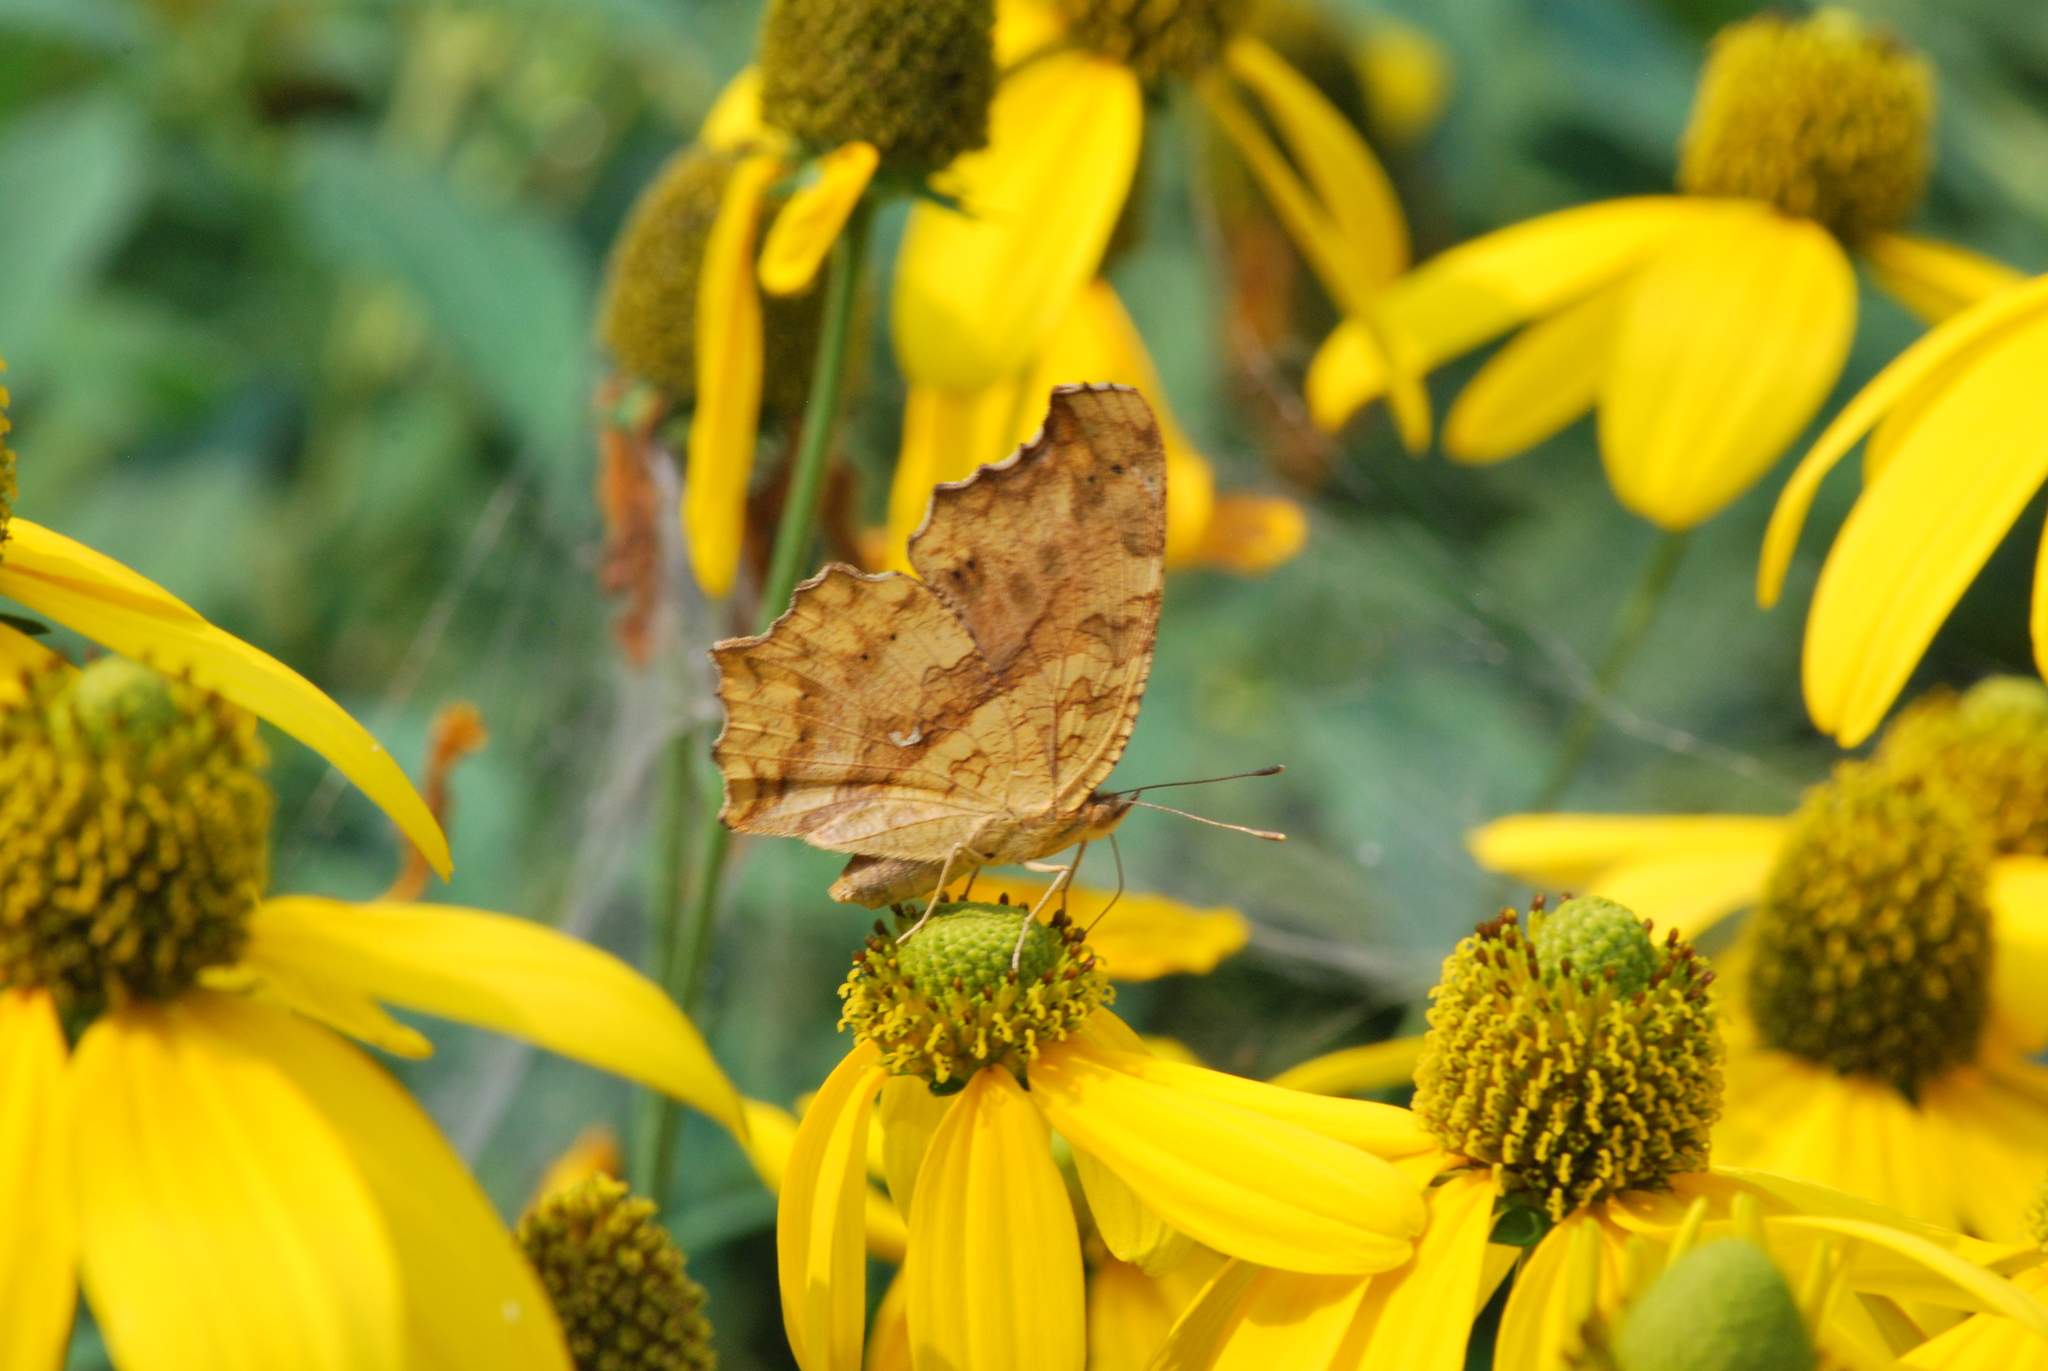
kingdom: Animalia
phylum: Arthropoda
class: Insecta
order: Lepidoptera
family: Nymphalidae
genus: Polygonia
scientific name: Polygonia c-aureum
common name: Asian comma
